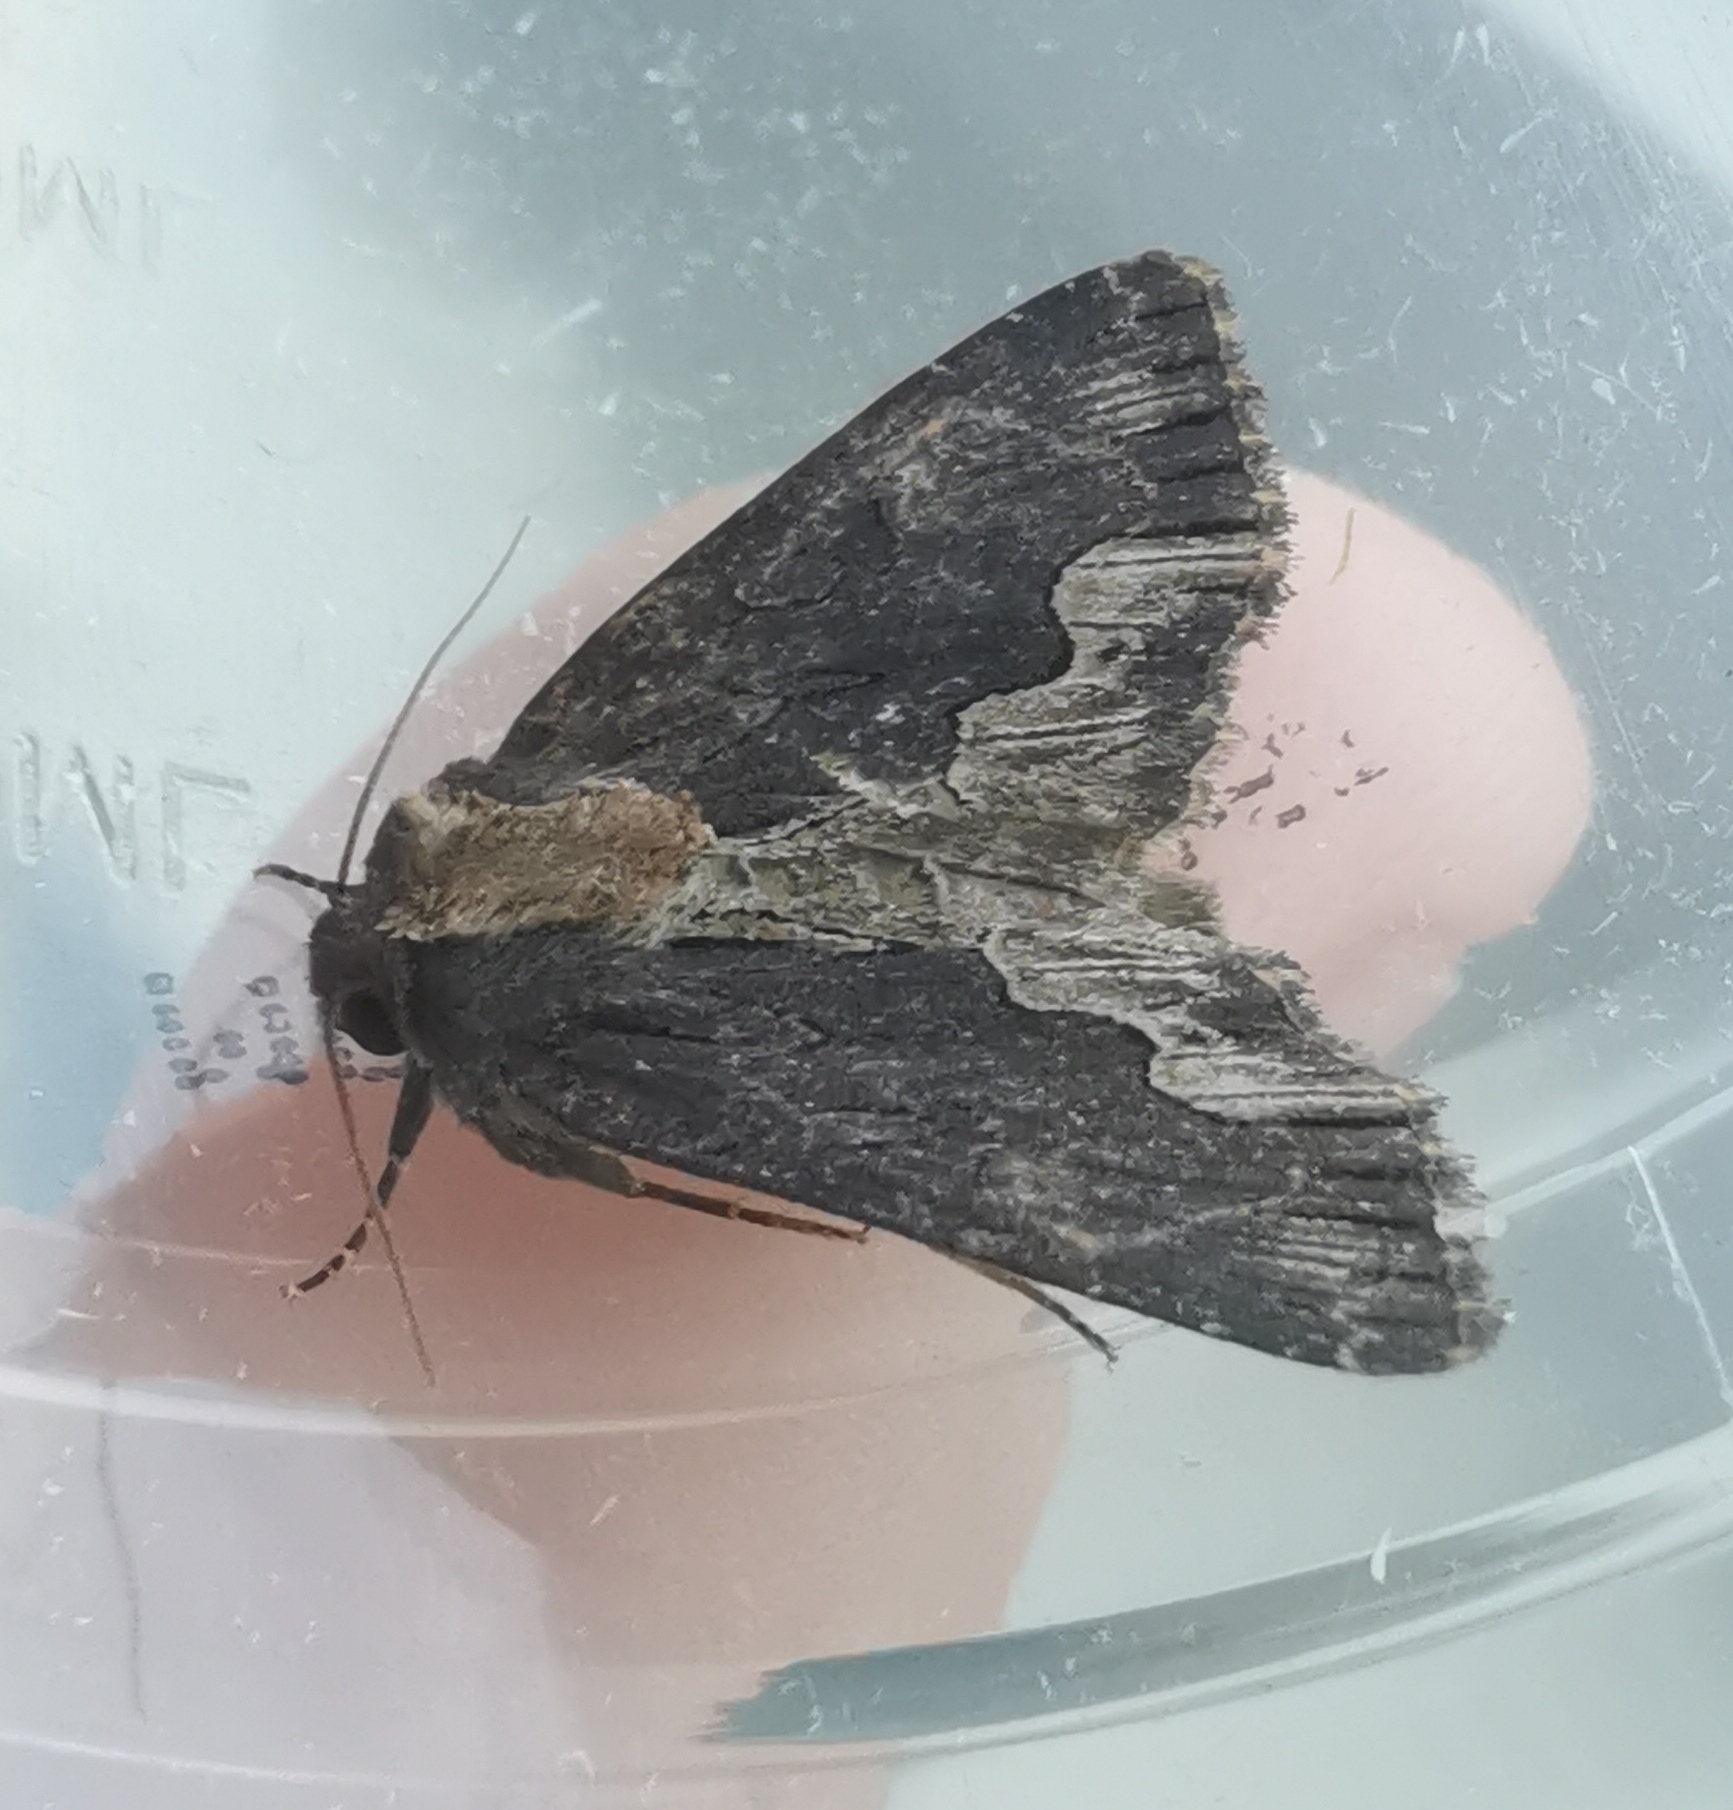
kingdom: Animalia
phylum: Arthropoda
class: Insecta
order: Lepidoptera
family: Noctuidae
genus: Dypterygia
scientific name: Dypterygia scabriuscula
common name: Bird's wing
